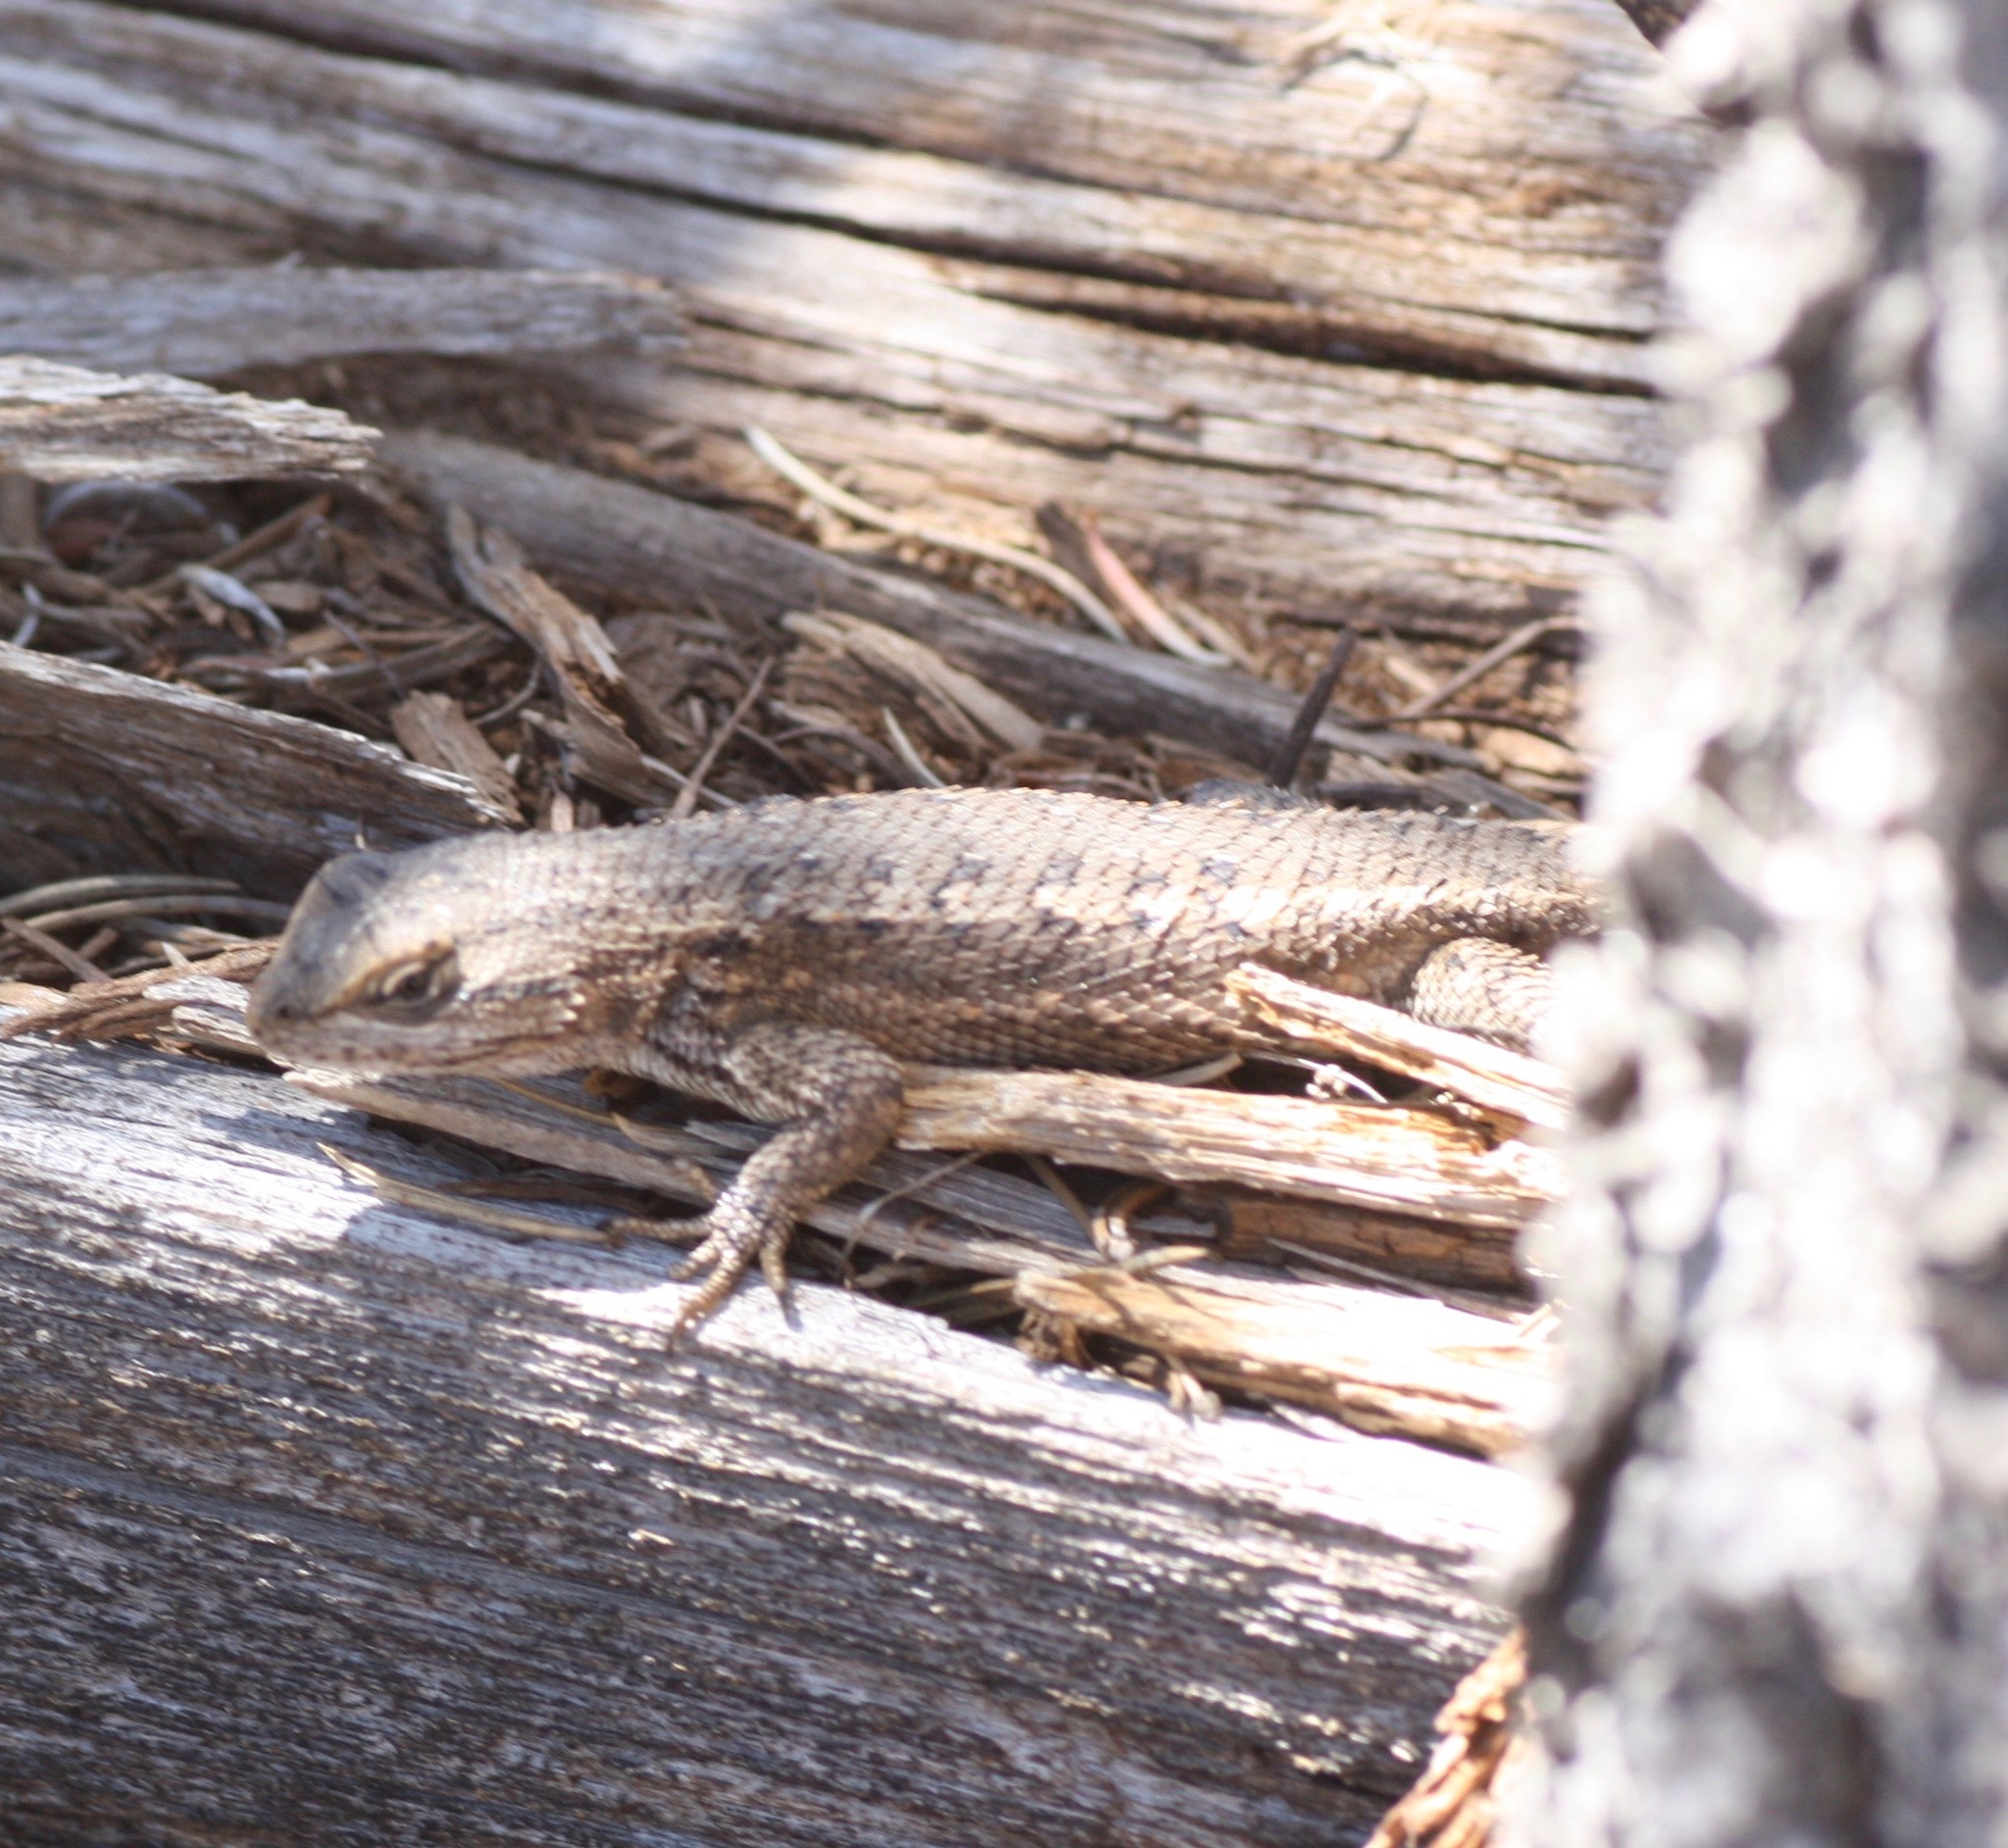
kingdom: Animalia
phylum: Chordata
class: Squamata
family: Phrynosomatidae
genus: Sceloporus
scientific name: Sceloporus cowlesi
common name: White sands prairie lizard
